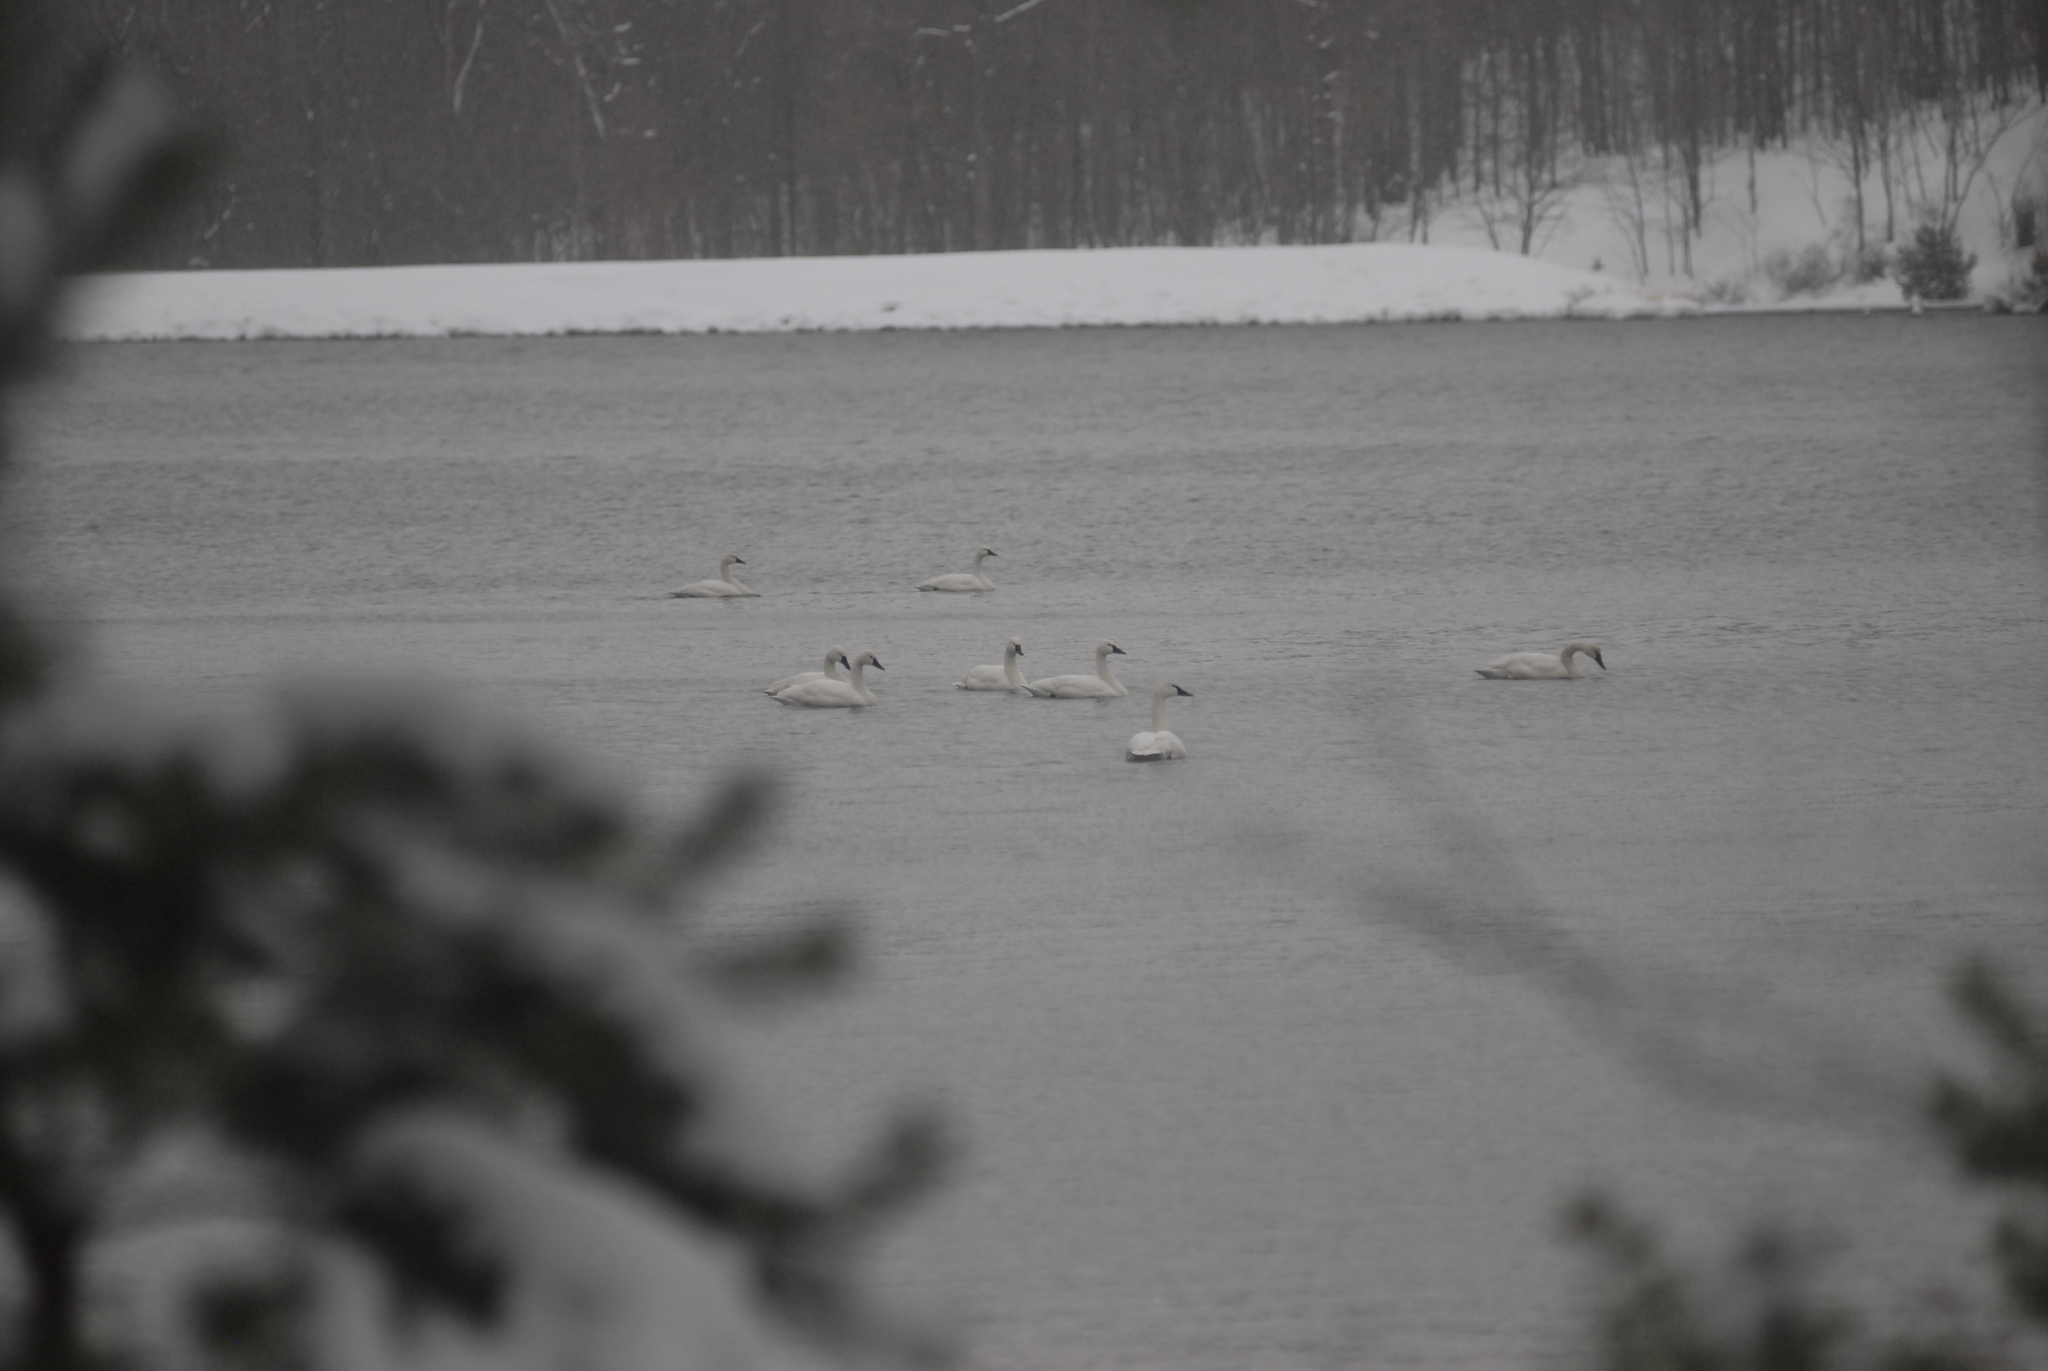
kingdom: Animalia
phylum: Chordata
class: Aves
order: Anseriformes
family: Anatidae
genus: Cygnus
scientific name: Cygnus columbianus
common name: Tundra swan
